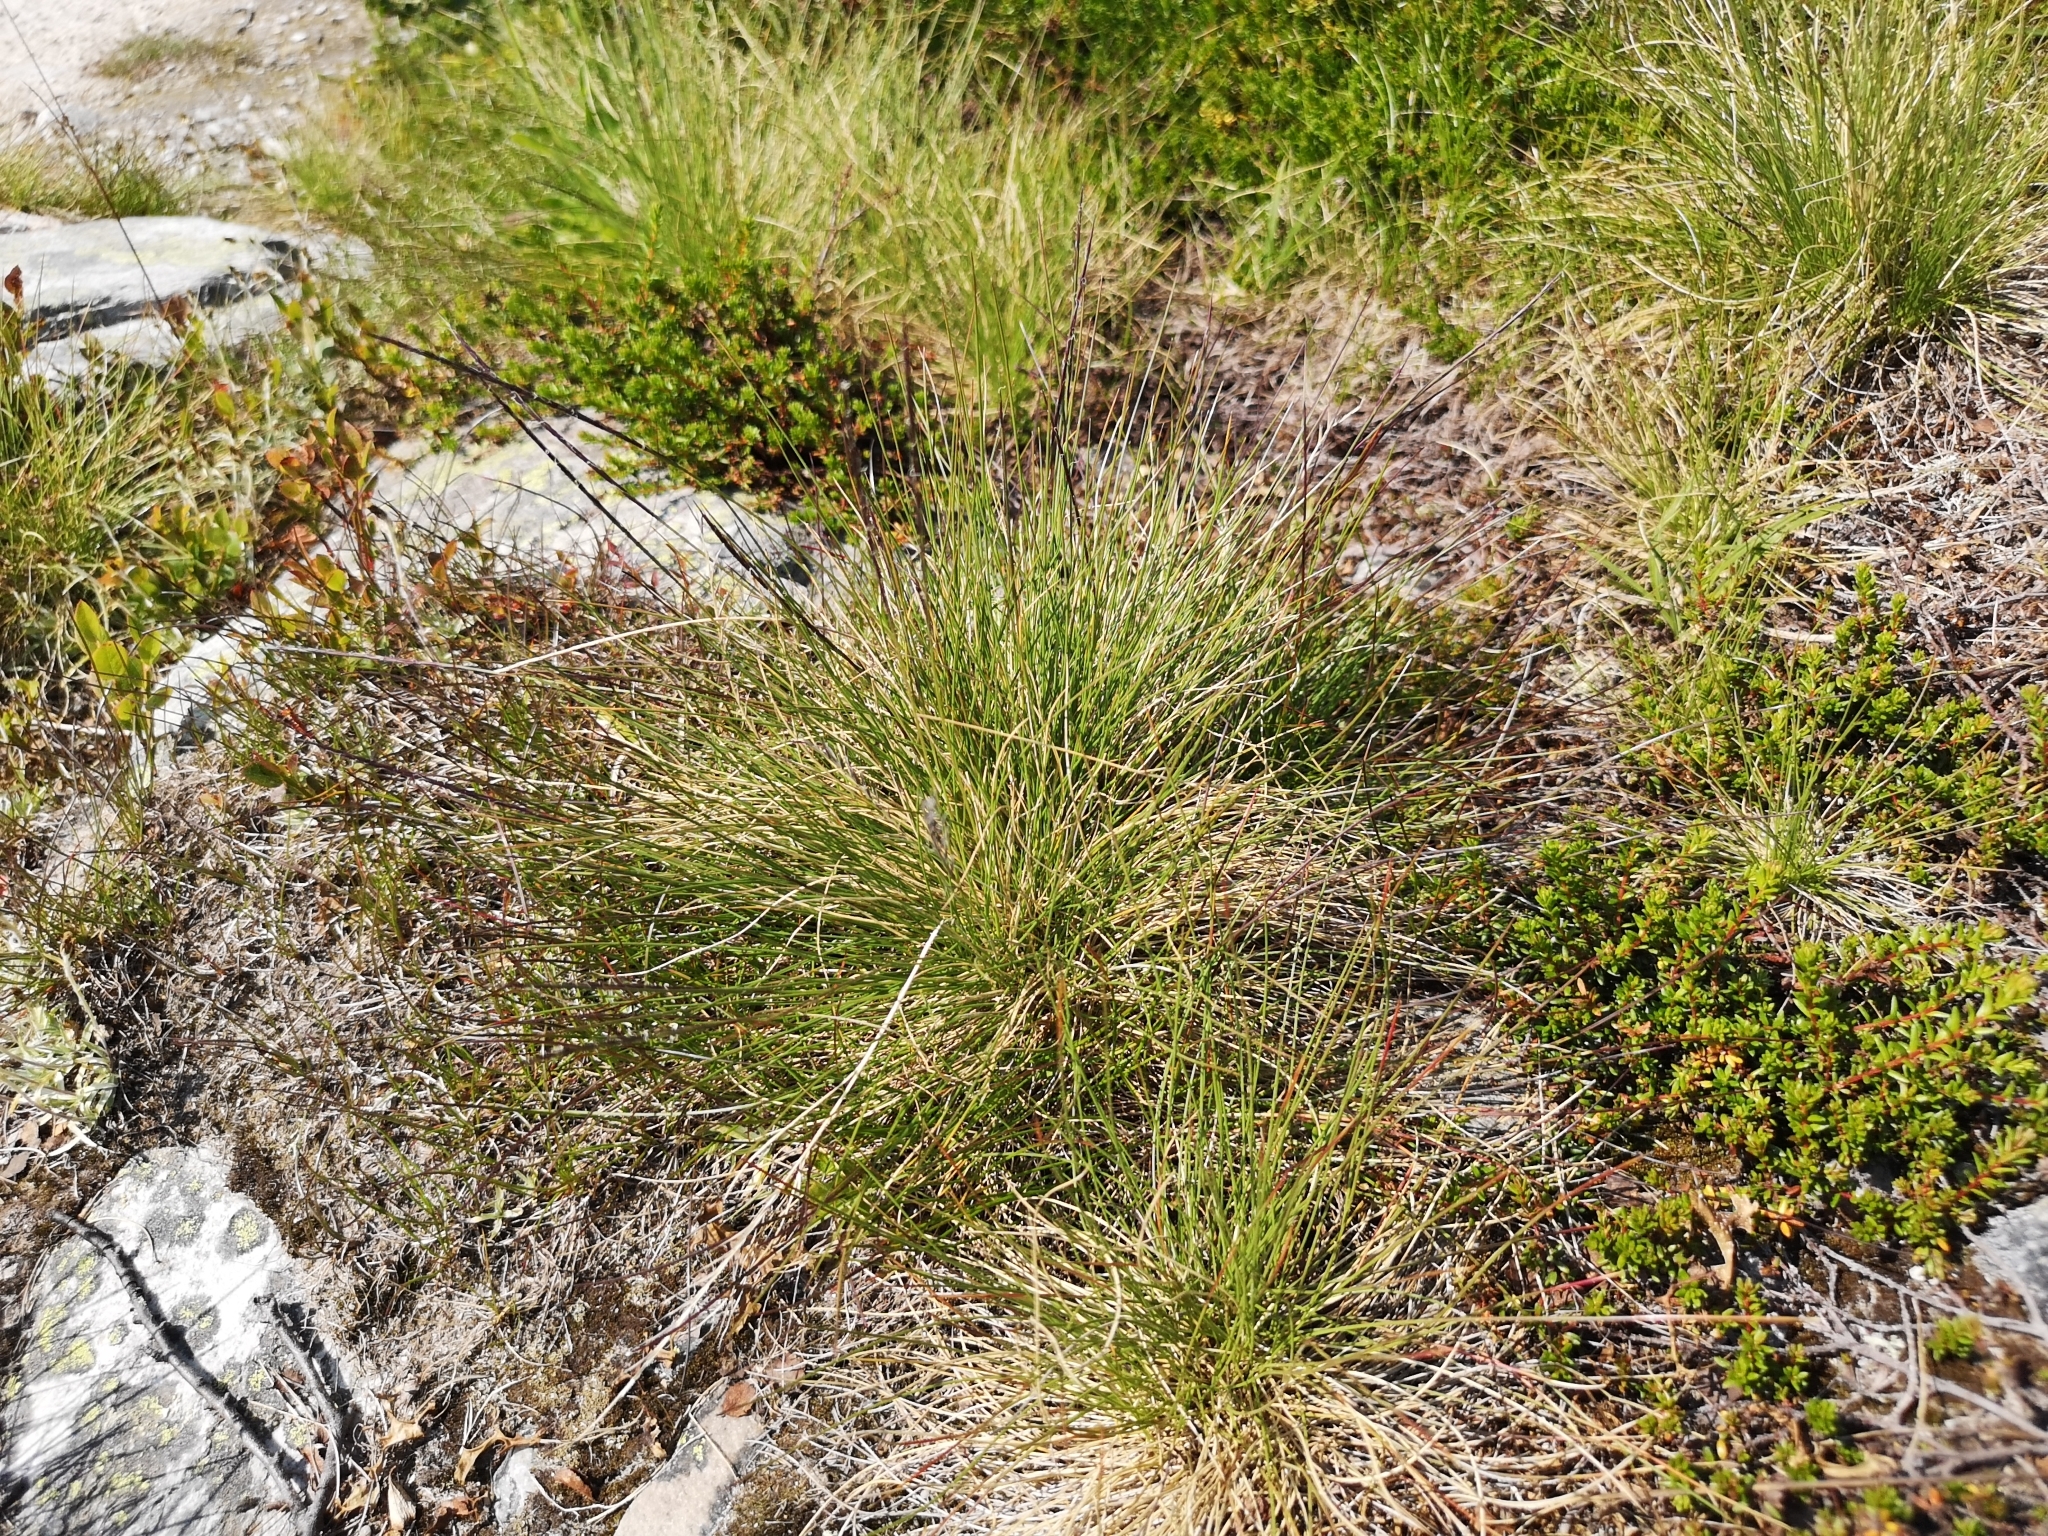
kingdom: Plantae
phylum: Tracheophyta
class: Liliopsida
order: Poales
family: Poaceae
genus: Nardus
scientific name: Nardus stricta
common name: Mat-grass
